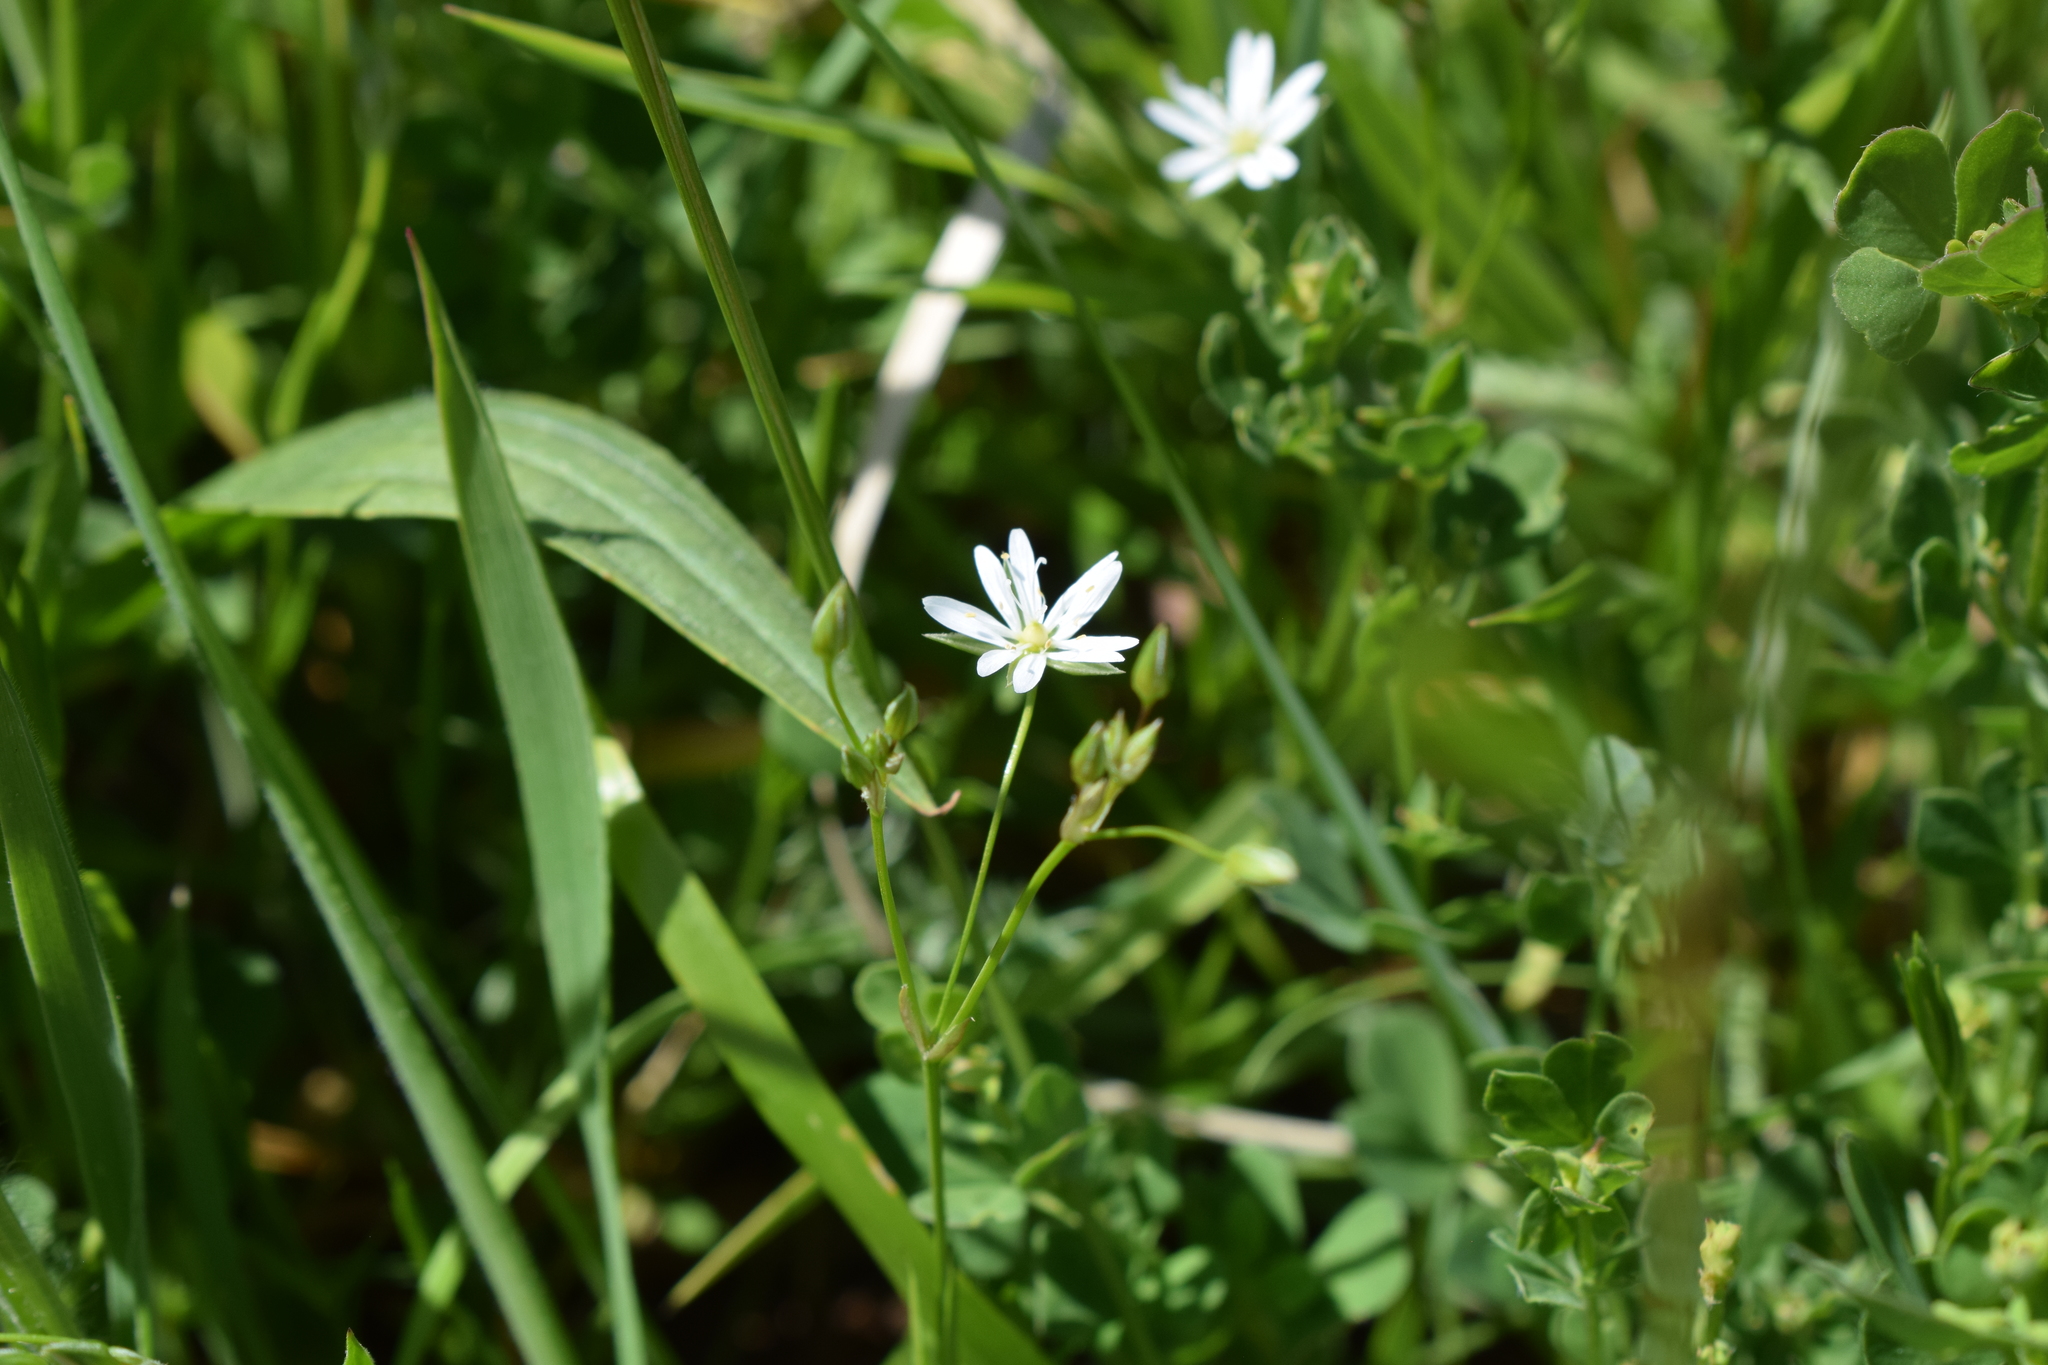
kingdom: Plantae
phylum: Tracheophyta
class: Magnoliopsida
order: Caryophyllales
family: Caryophyllaceae
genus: Stellaria
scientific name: Stellaria graminea
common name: Grass-like starwort
